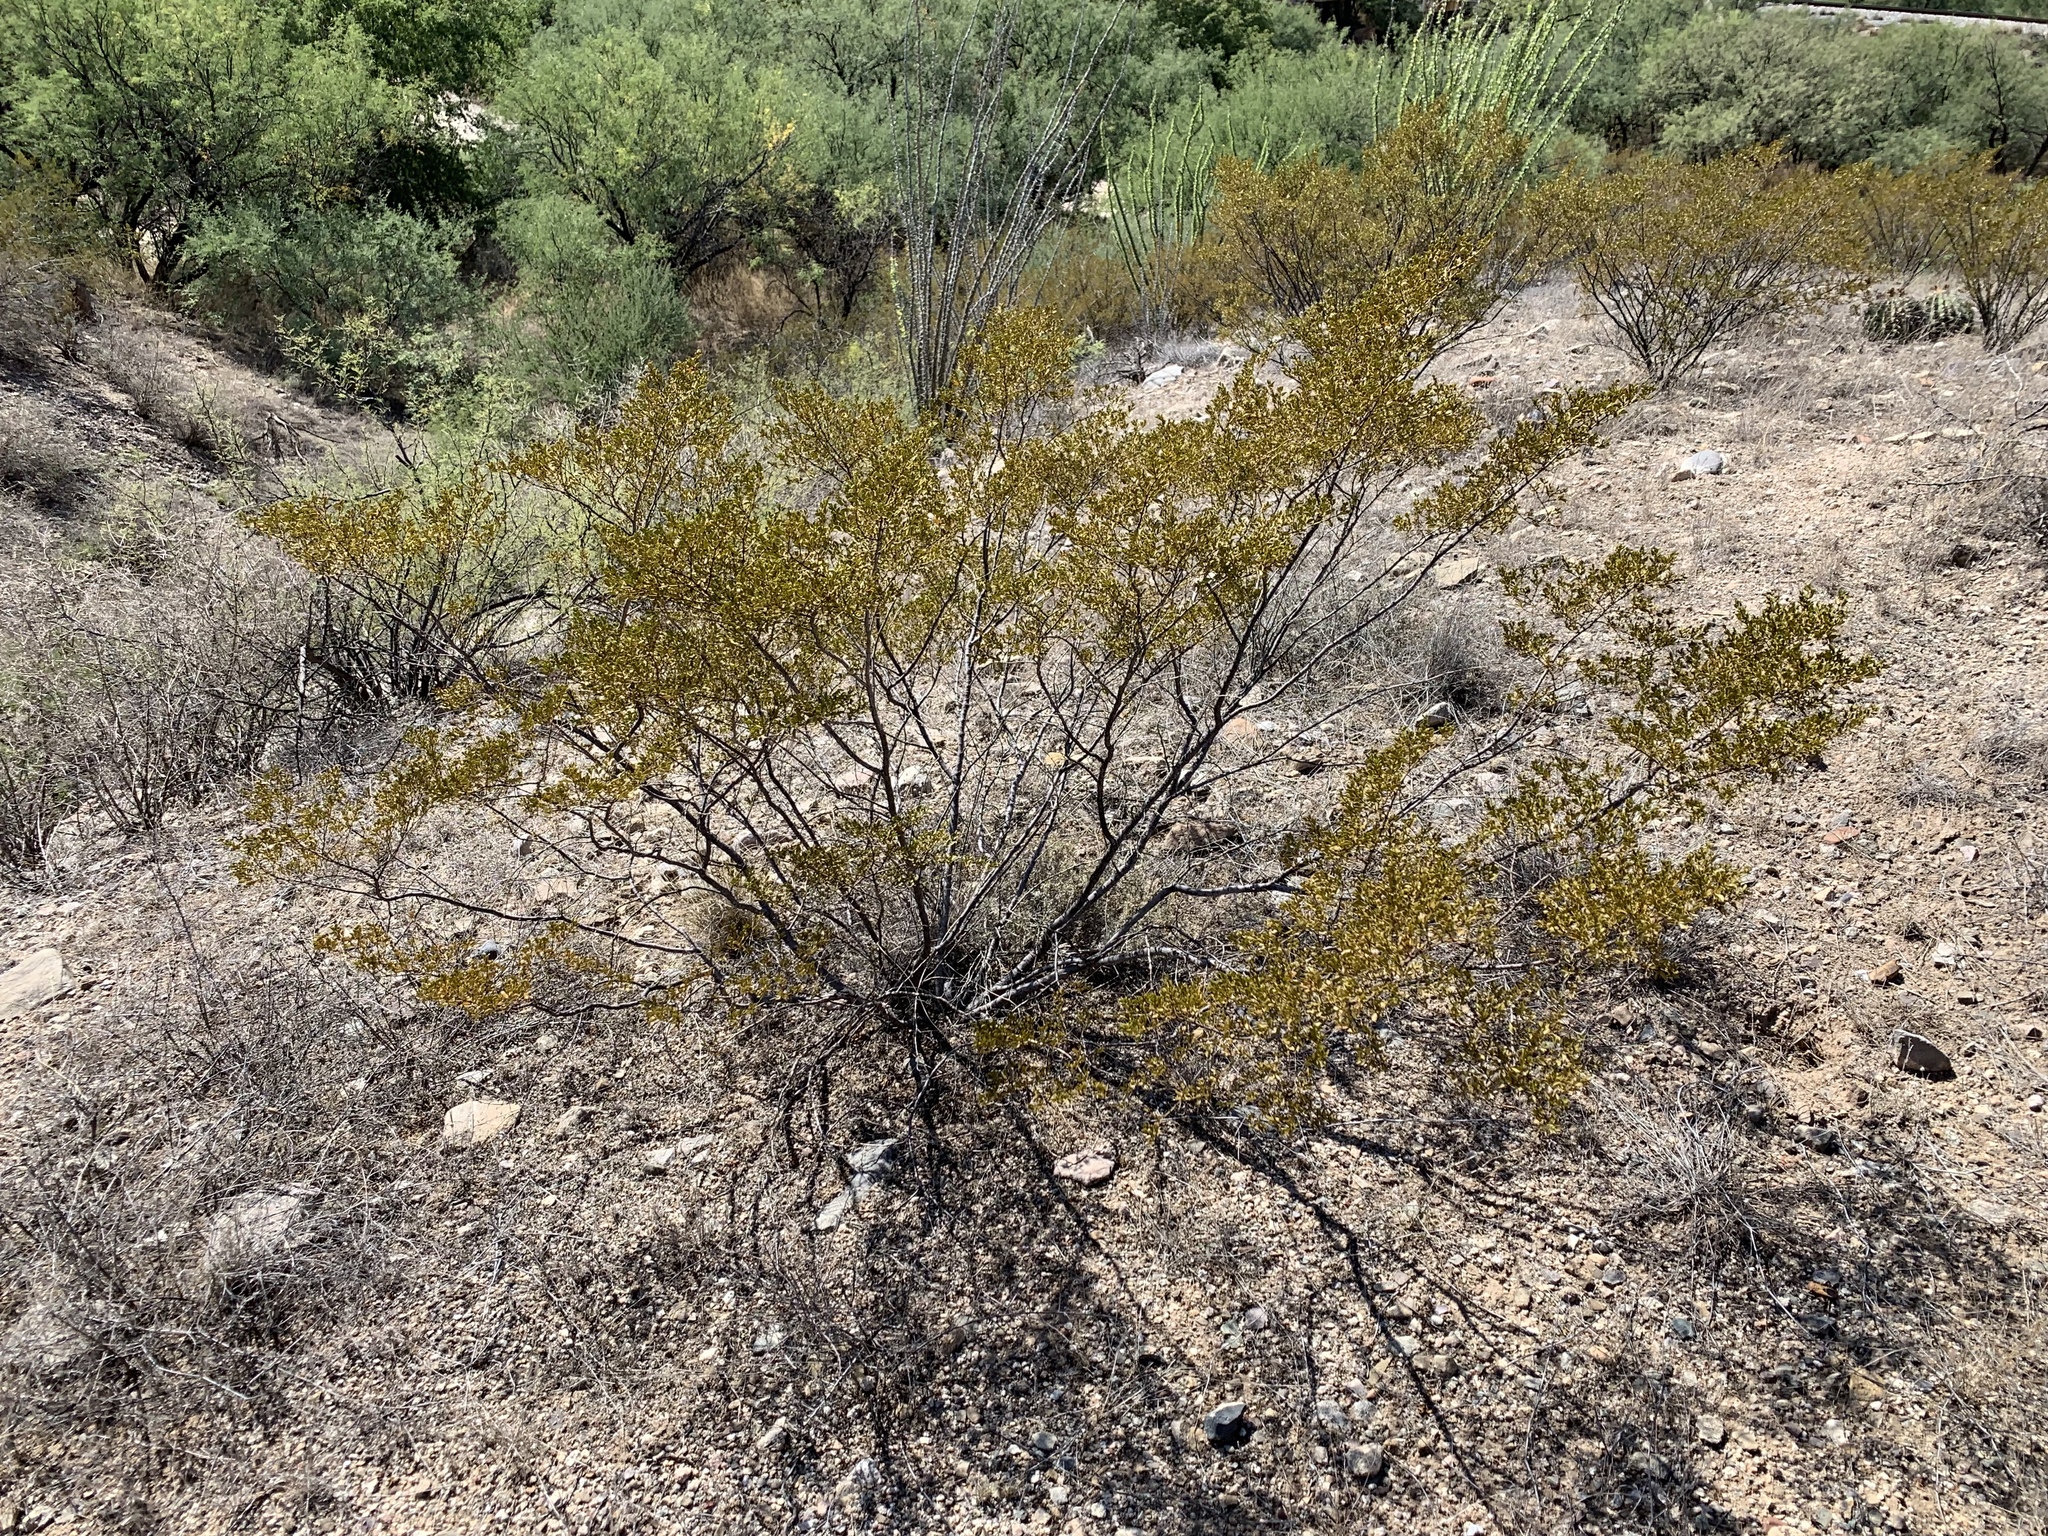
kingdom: Plantae
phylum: Tracheophyta
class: Magnoliopsida
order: Zygophyllales
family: Zygophyllaceae
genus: Larrea
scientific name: Larrea tridentata
